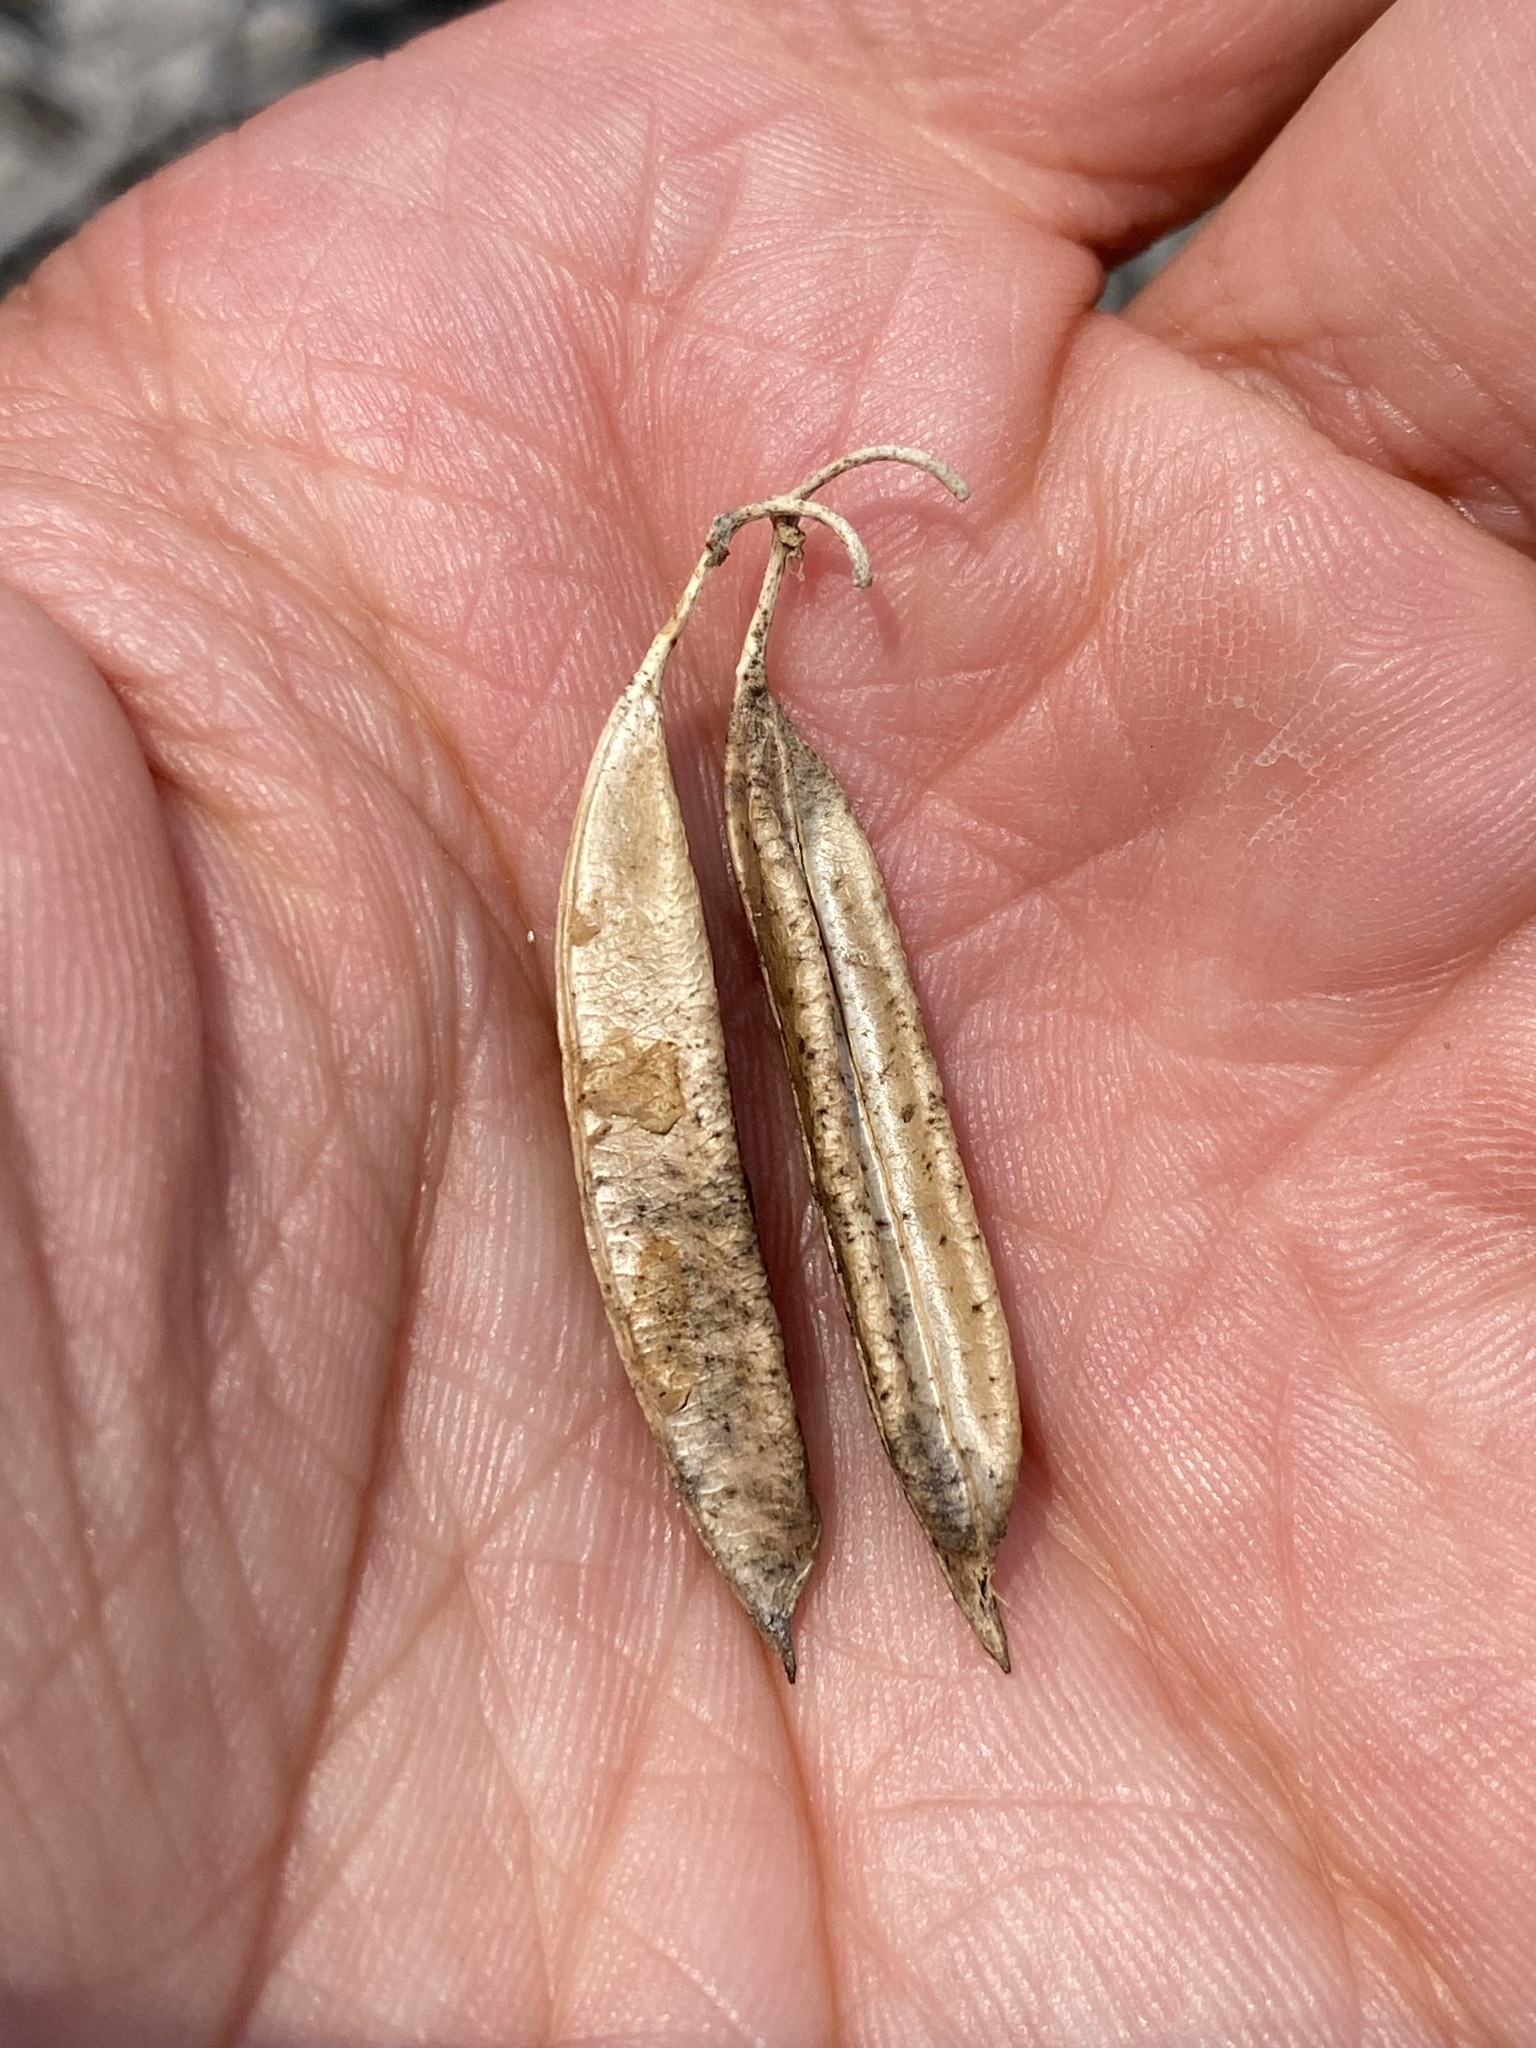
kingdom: Plantae
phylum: Tracheophyta
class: Magnoliopsida
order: Fabales
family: Fabaceae
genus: Astragalus
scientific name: Astragalus racemosus
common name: Alkali milk-vetch
